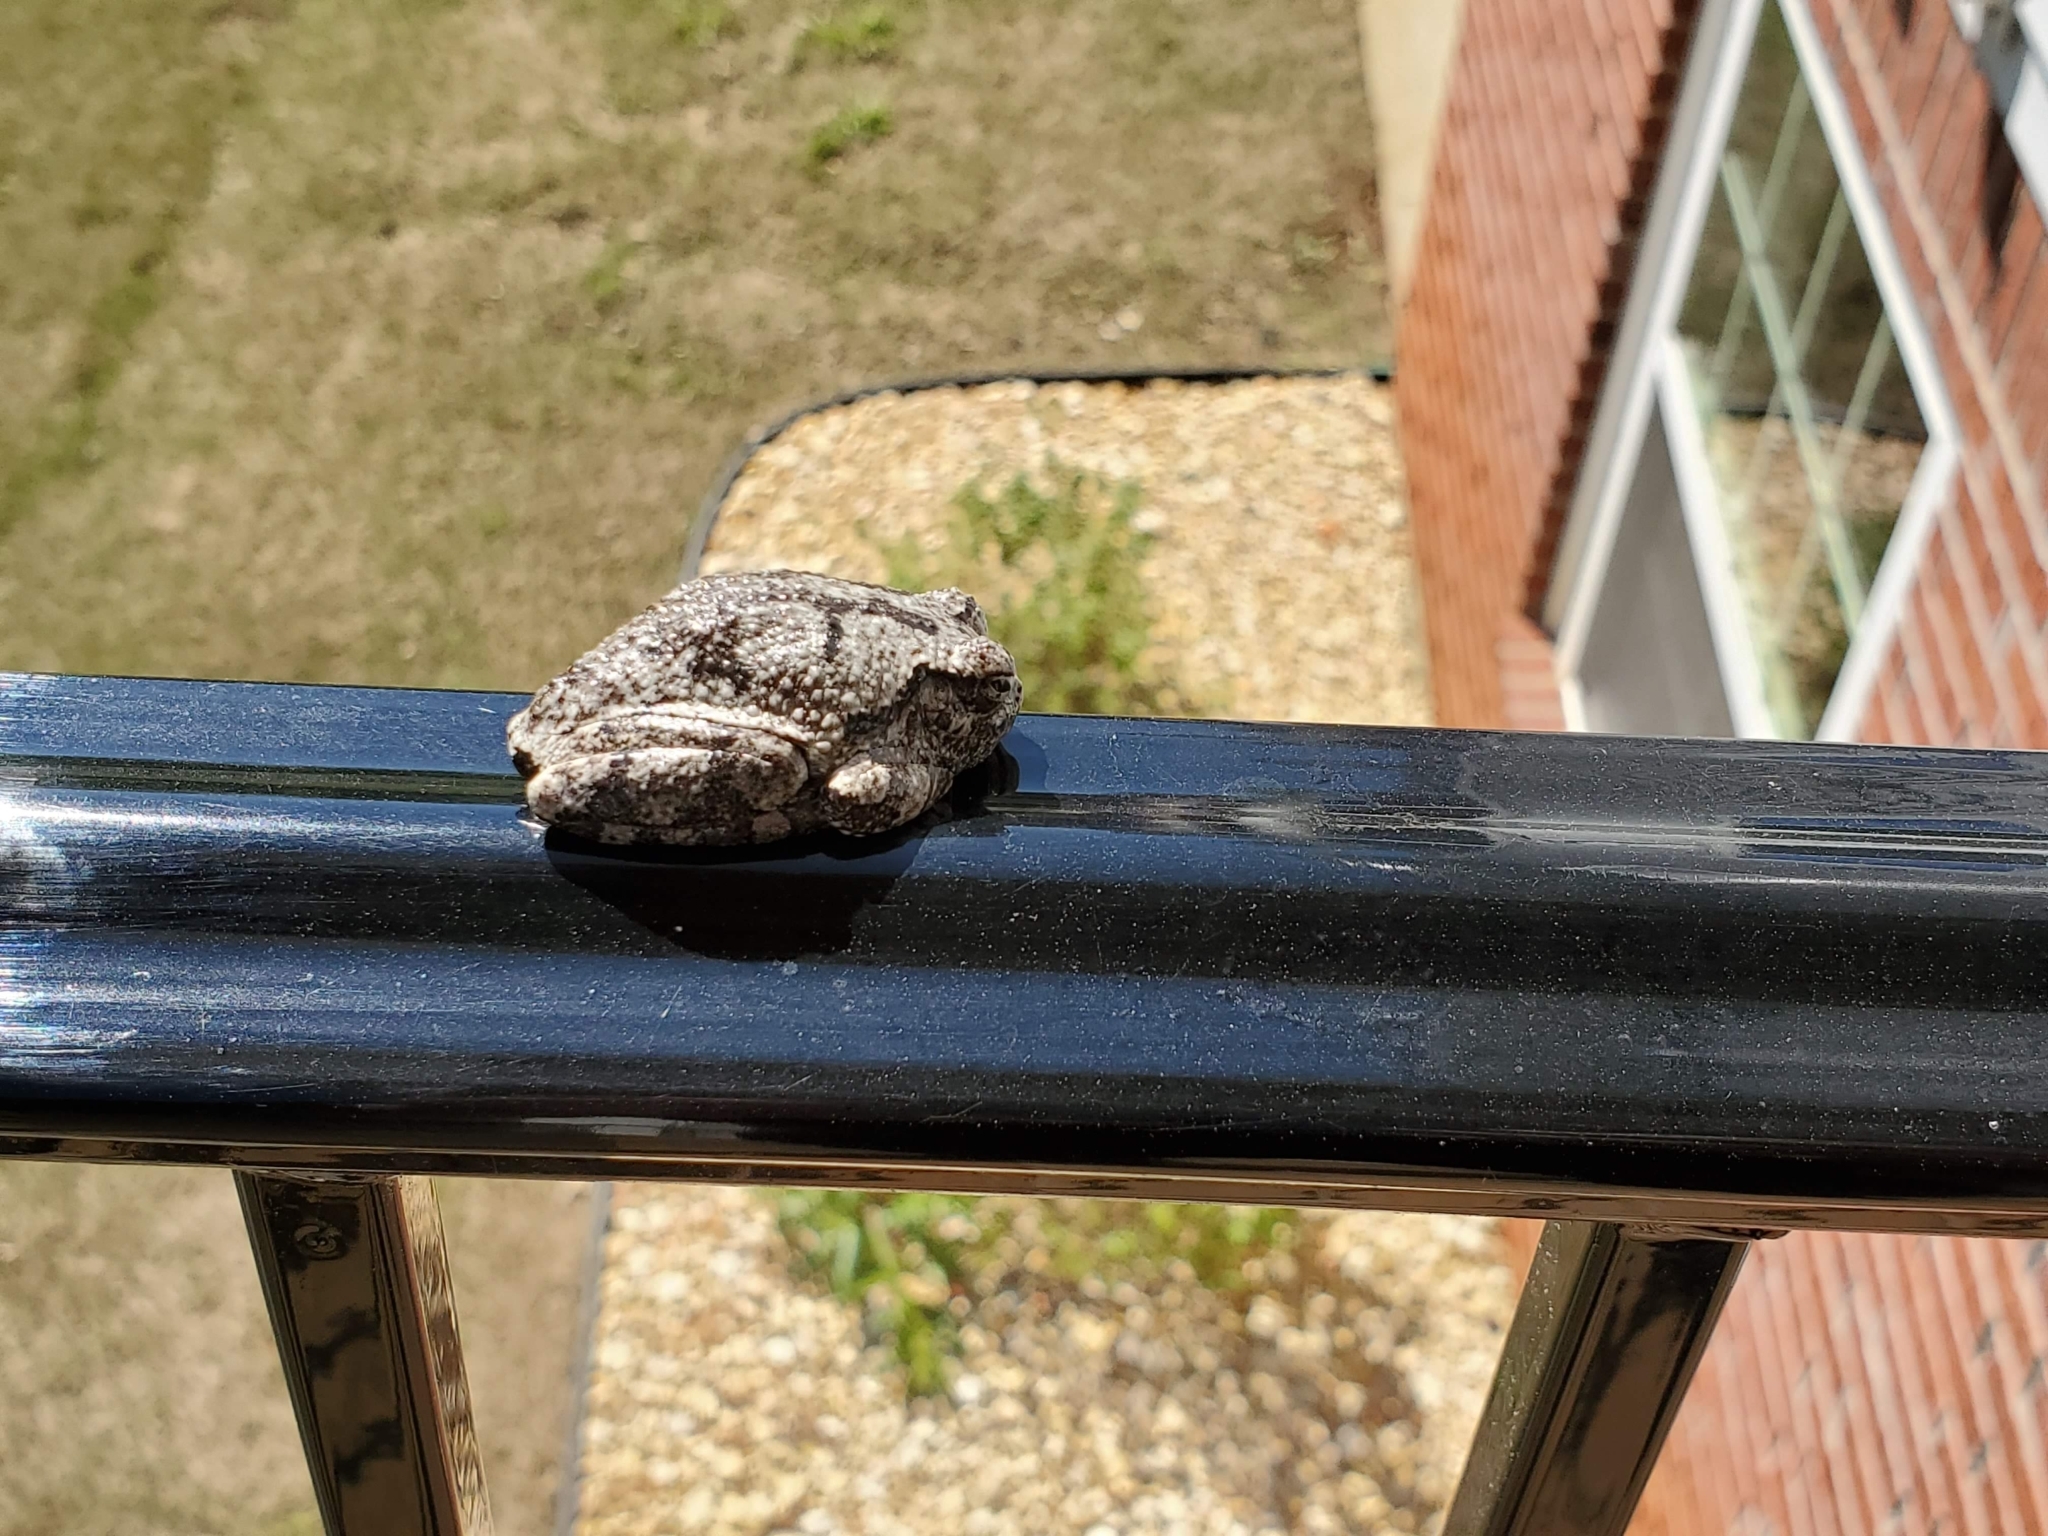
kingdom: Animalia
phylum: Chordata
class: Amphibia
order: Anura
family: Hylidae
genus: Dryophytes
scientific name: Dryophytes chrysoscelis
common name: Cope's gray treefrog
